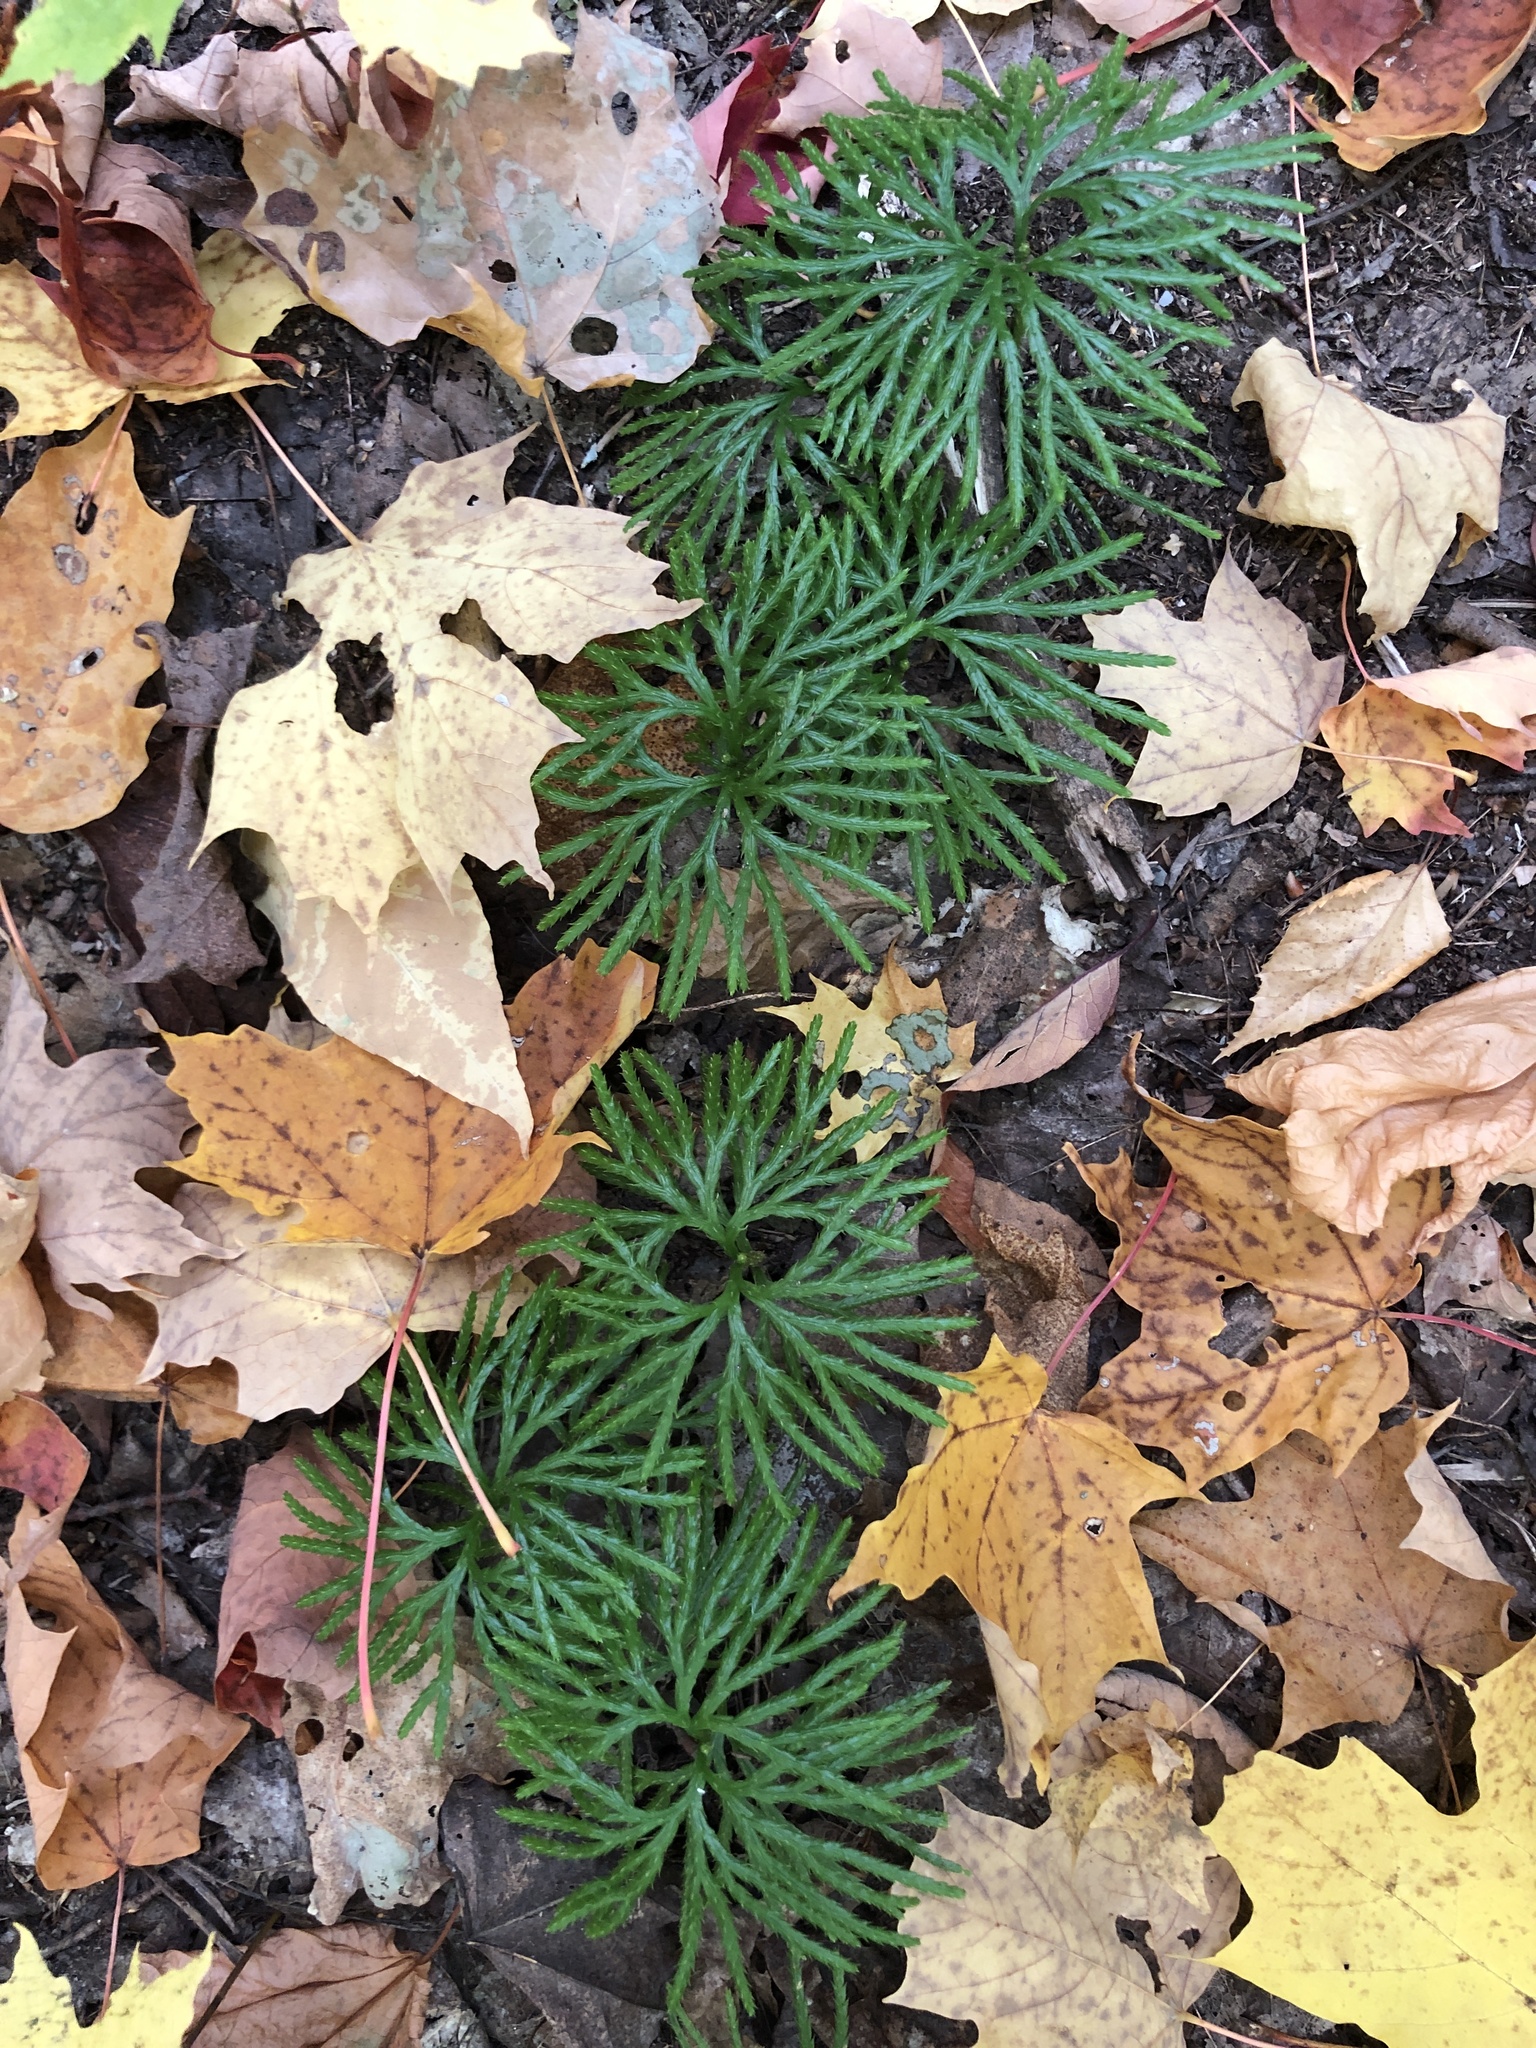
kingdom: Plantae
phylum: Tracheophyta
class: Lycopodiopsida
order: Lycopodiales
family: Lycopodiaceae
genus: Diphasiastrum
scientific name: Diphasiastrum digitatum
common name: Southern running-pine
